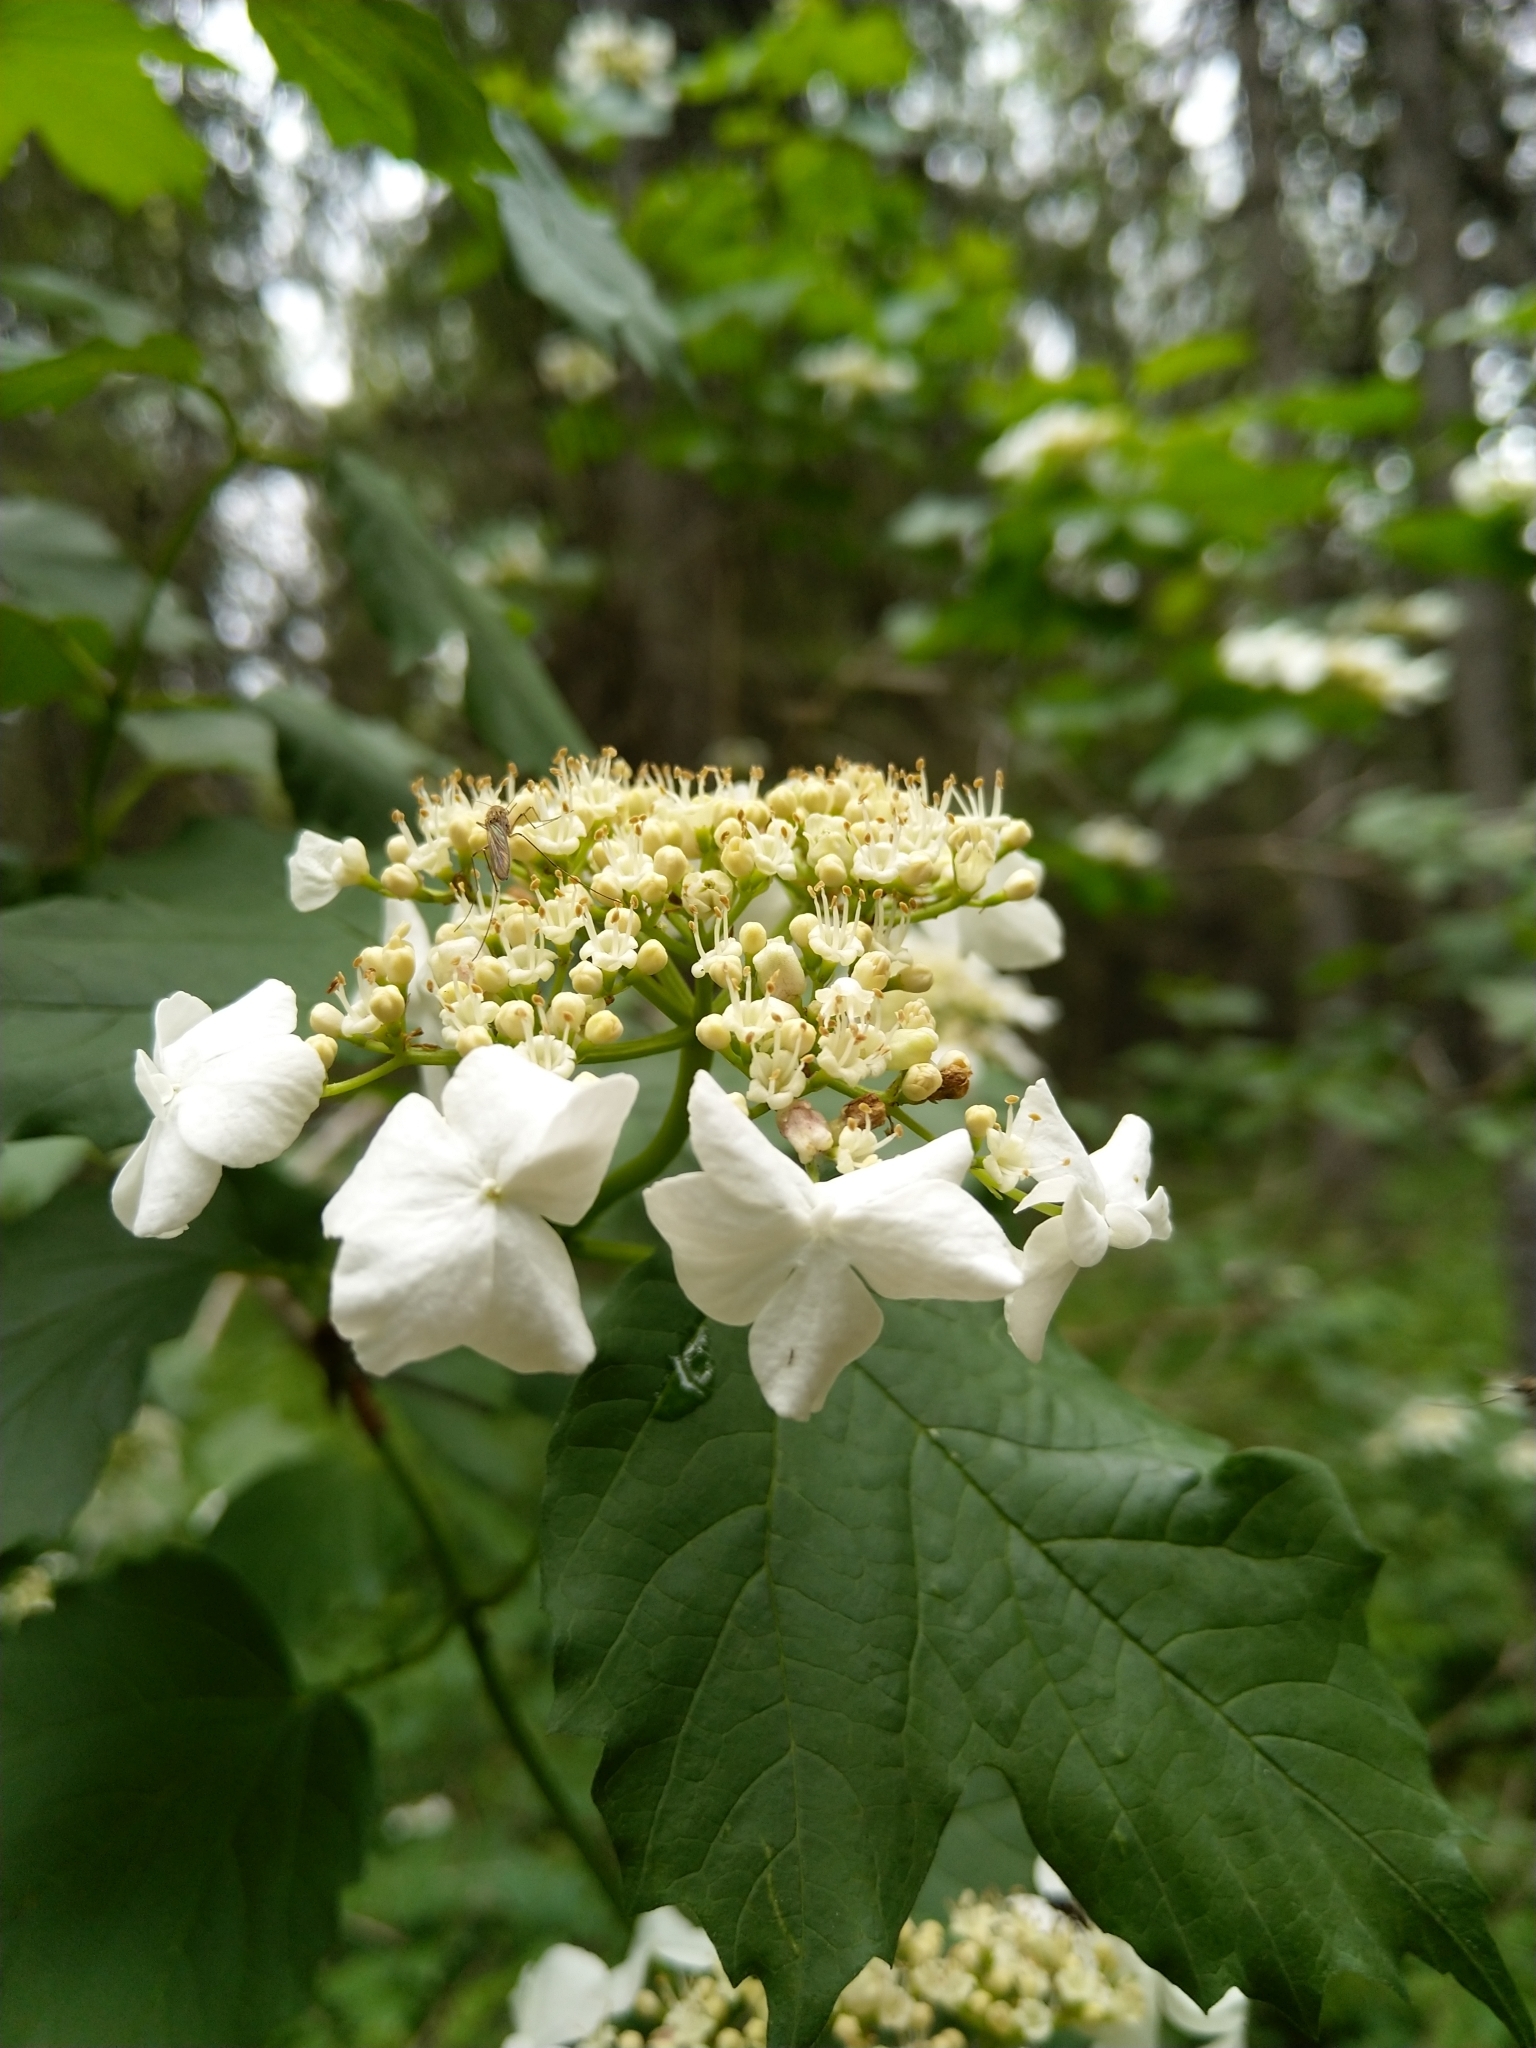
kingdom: Plantae
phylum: Tracheophyta
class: Magnoliopsida
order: Dipsacales
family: Viburnaceae
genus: Viburnum
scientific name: Viburnum opulus
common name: Guelder-rose
